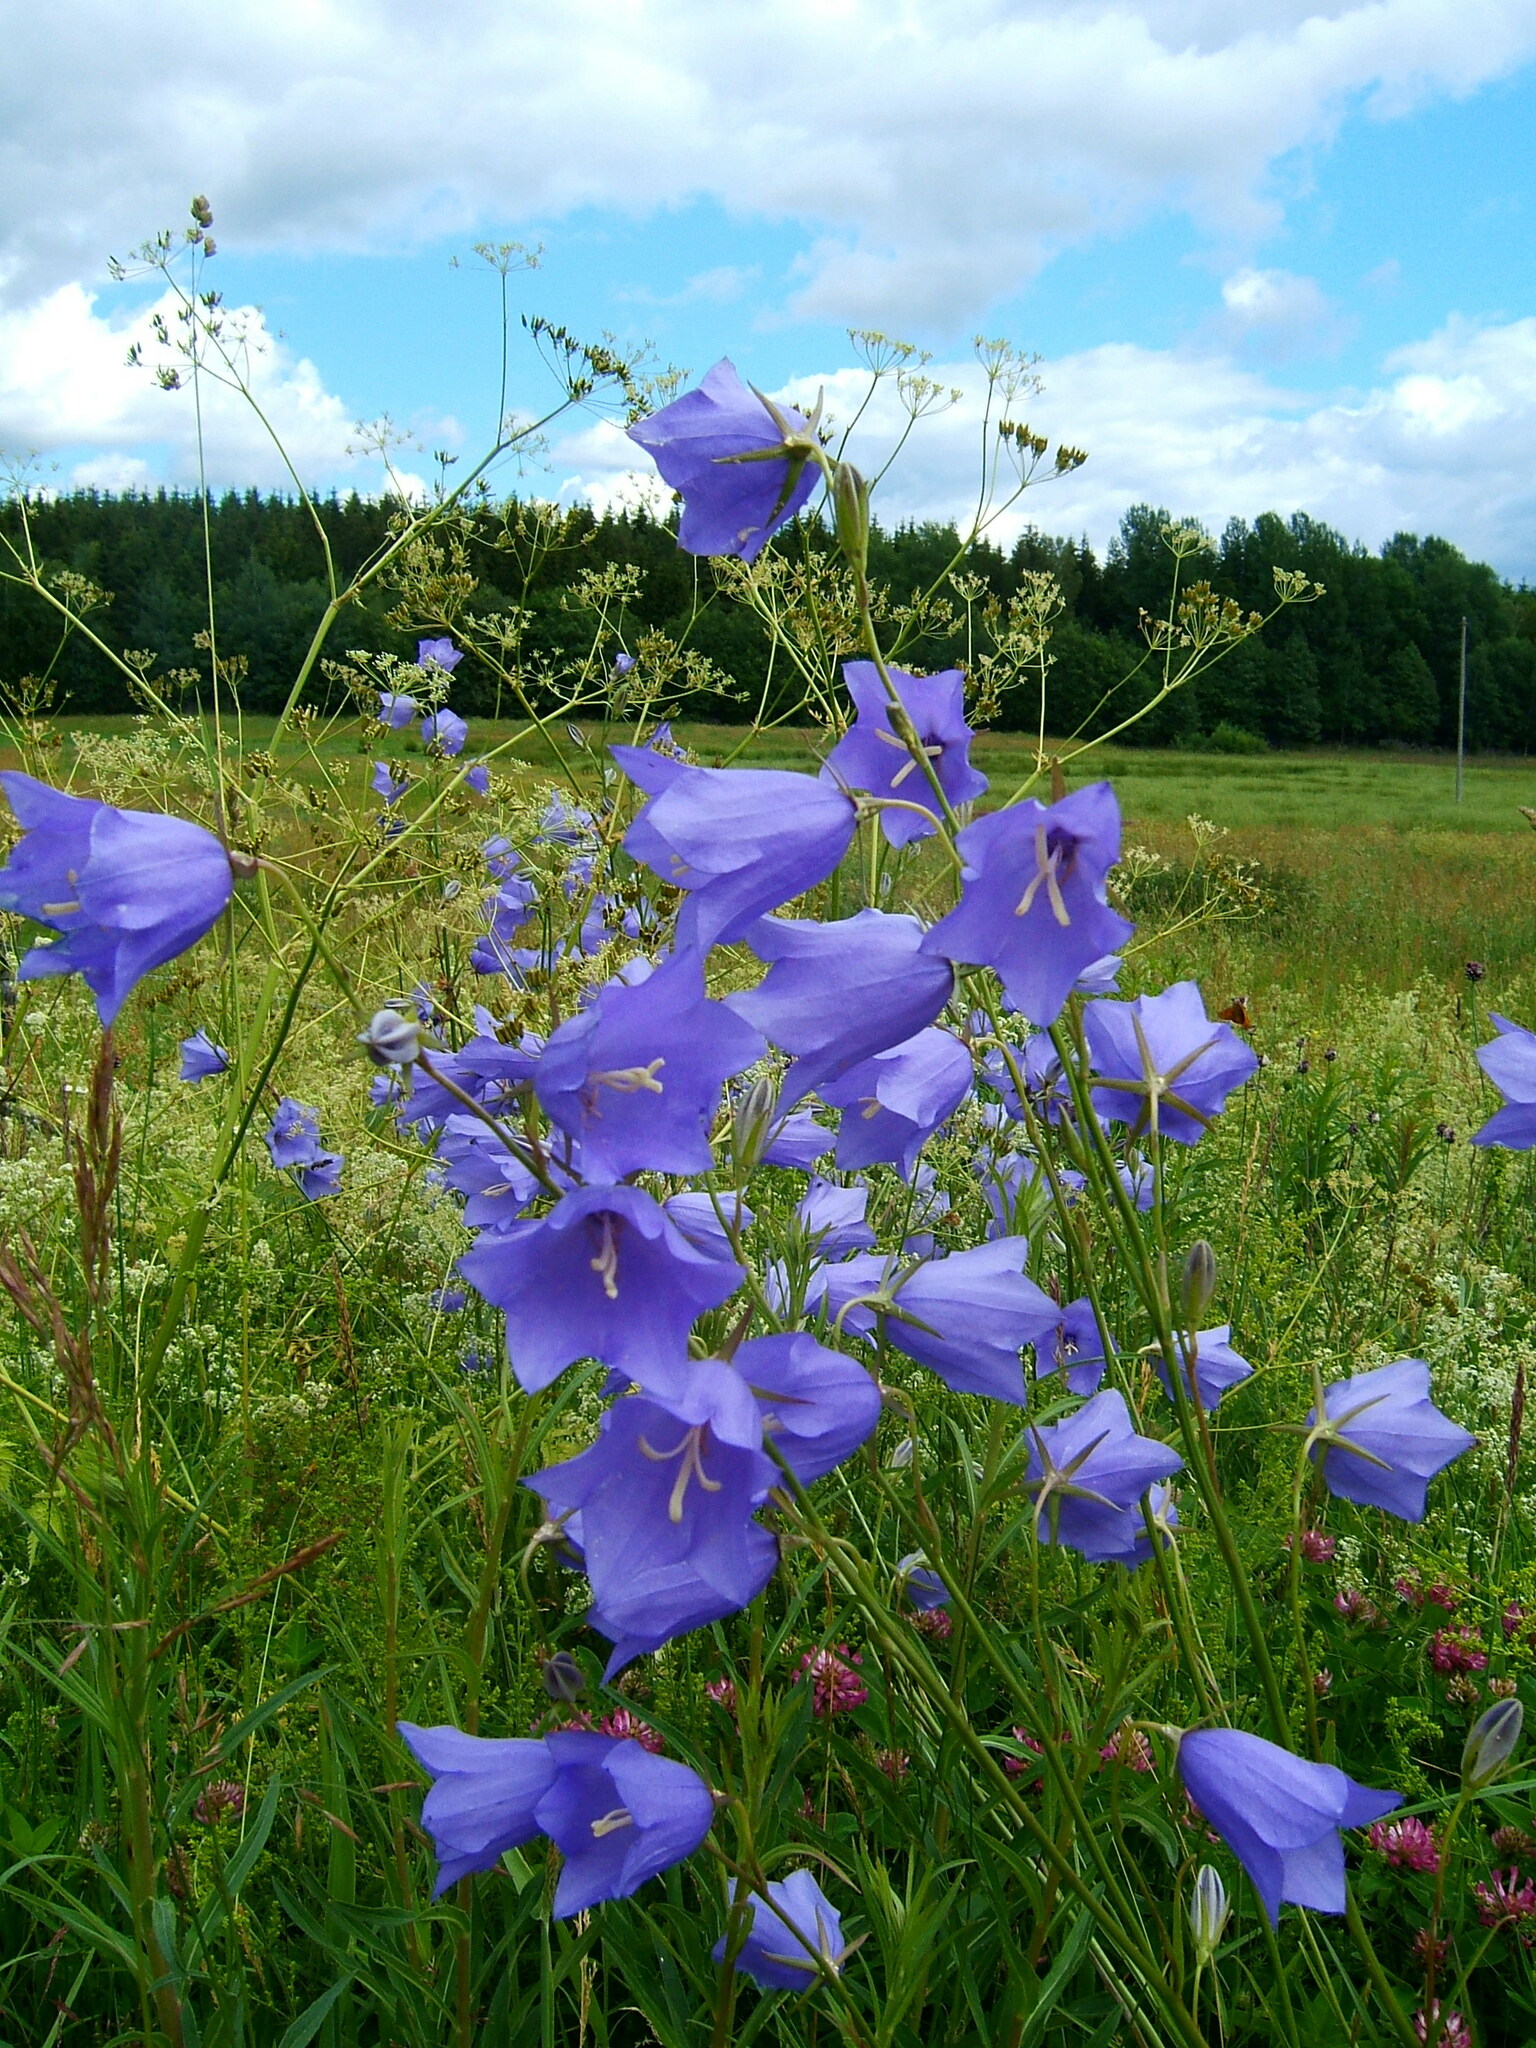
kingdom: Plantae
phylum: Tracheophyta
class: Magnoliopsida
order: Asterales
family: Campanulaceae
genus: Campanula
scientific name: Campanula persicifolia
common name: Peach-leaved bellflower
